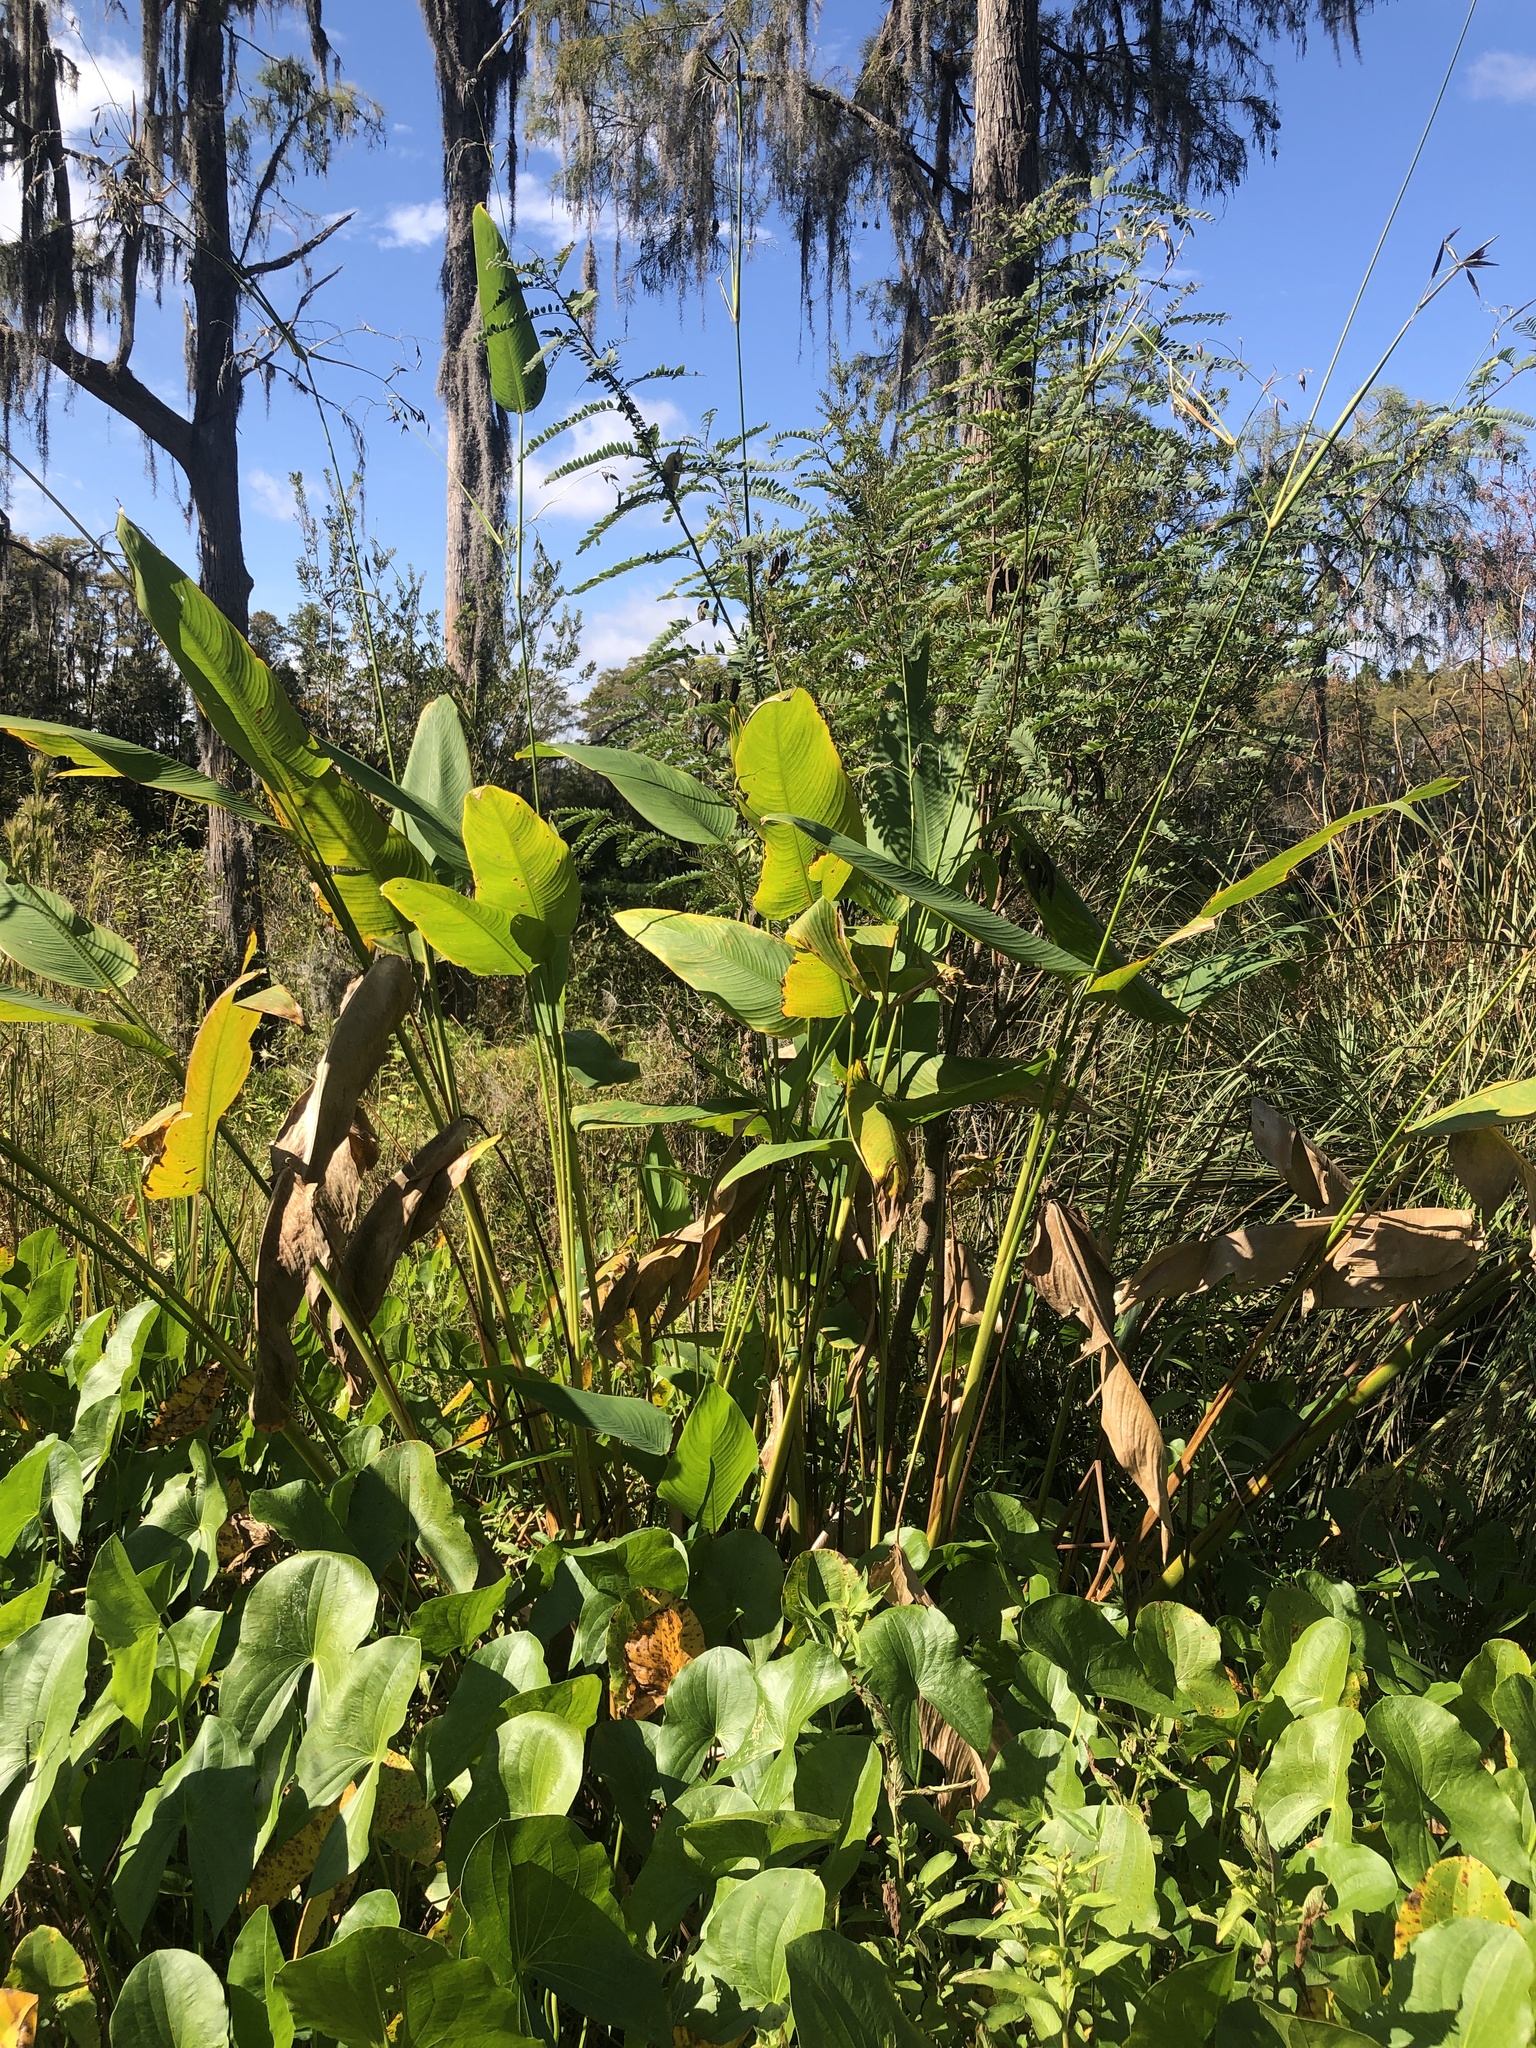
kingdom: Plantae
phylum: Tracheophyta
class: Liliopsida
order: Zingiberales
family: Marantaceae
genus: Thalia
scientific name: Thalia geniculata
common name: Arrowroot
